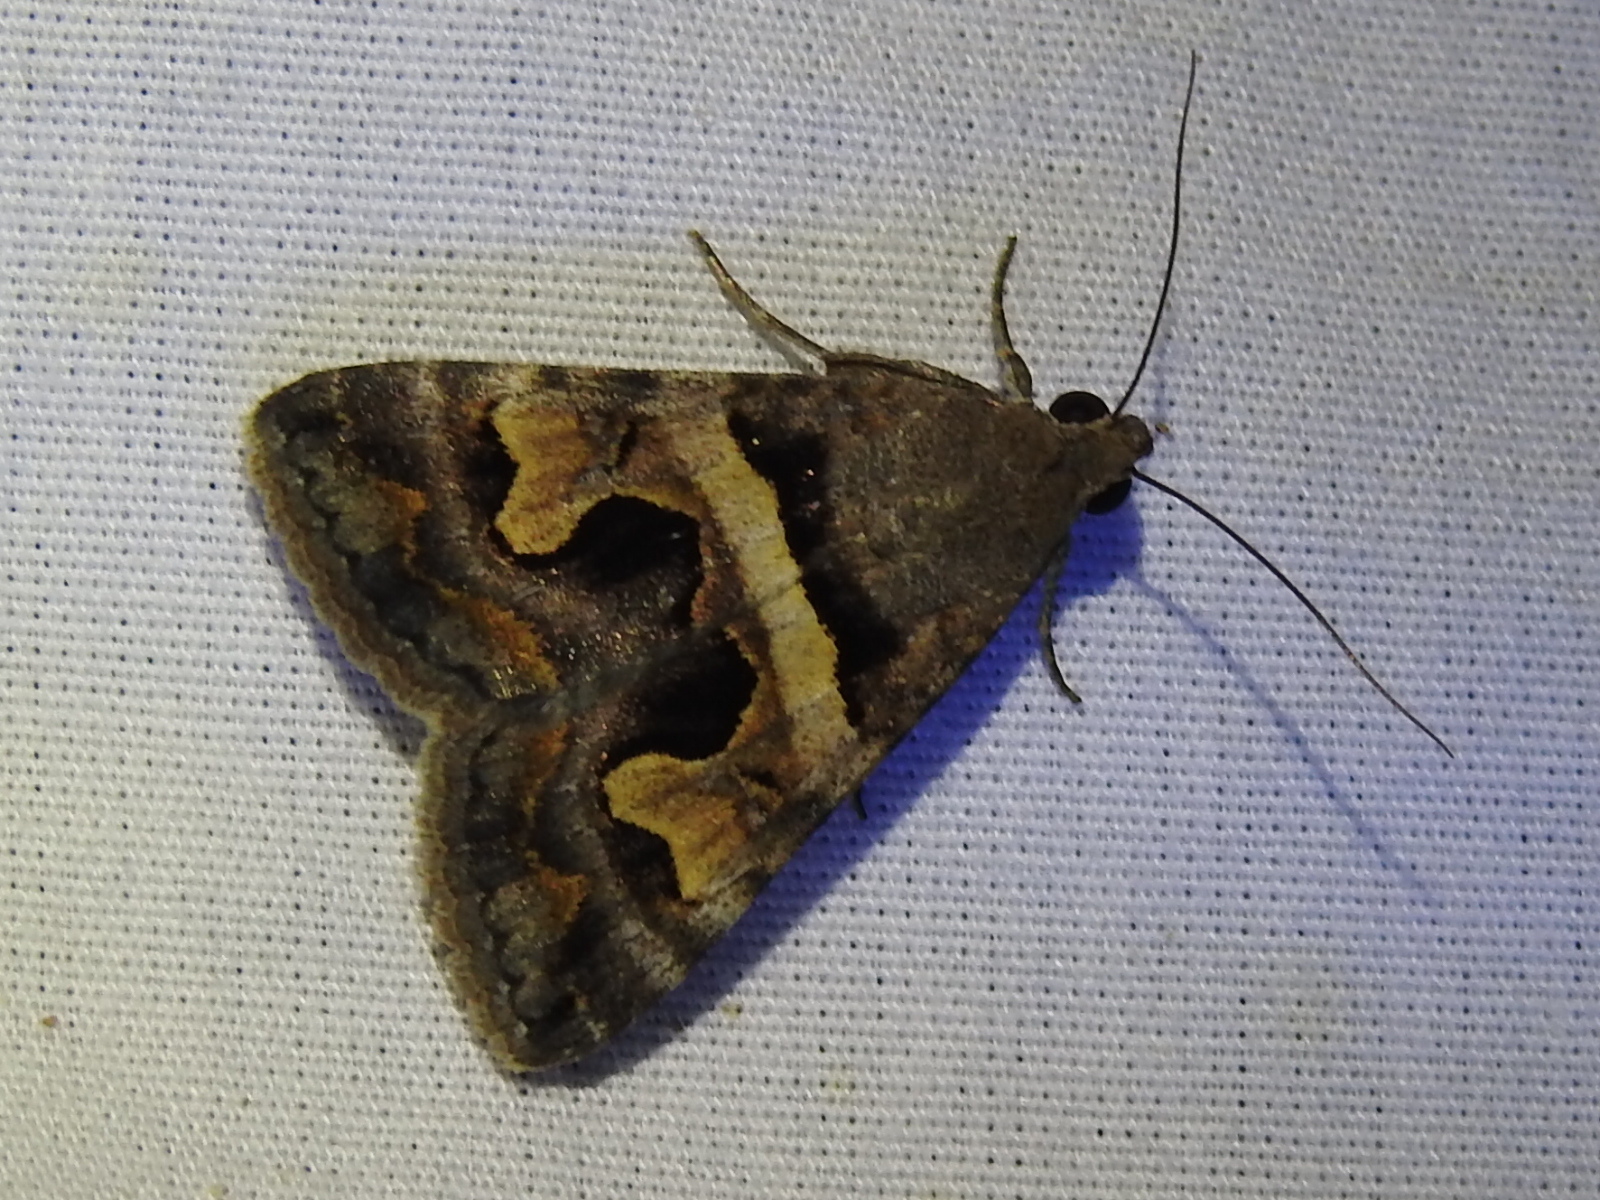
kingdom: Animalia
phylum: Arthropoda
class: Insecta
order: Lepidoptera
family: Erebidae
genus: Bulia
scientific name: Bulia deducta
